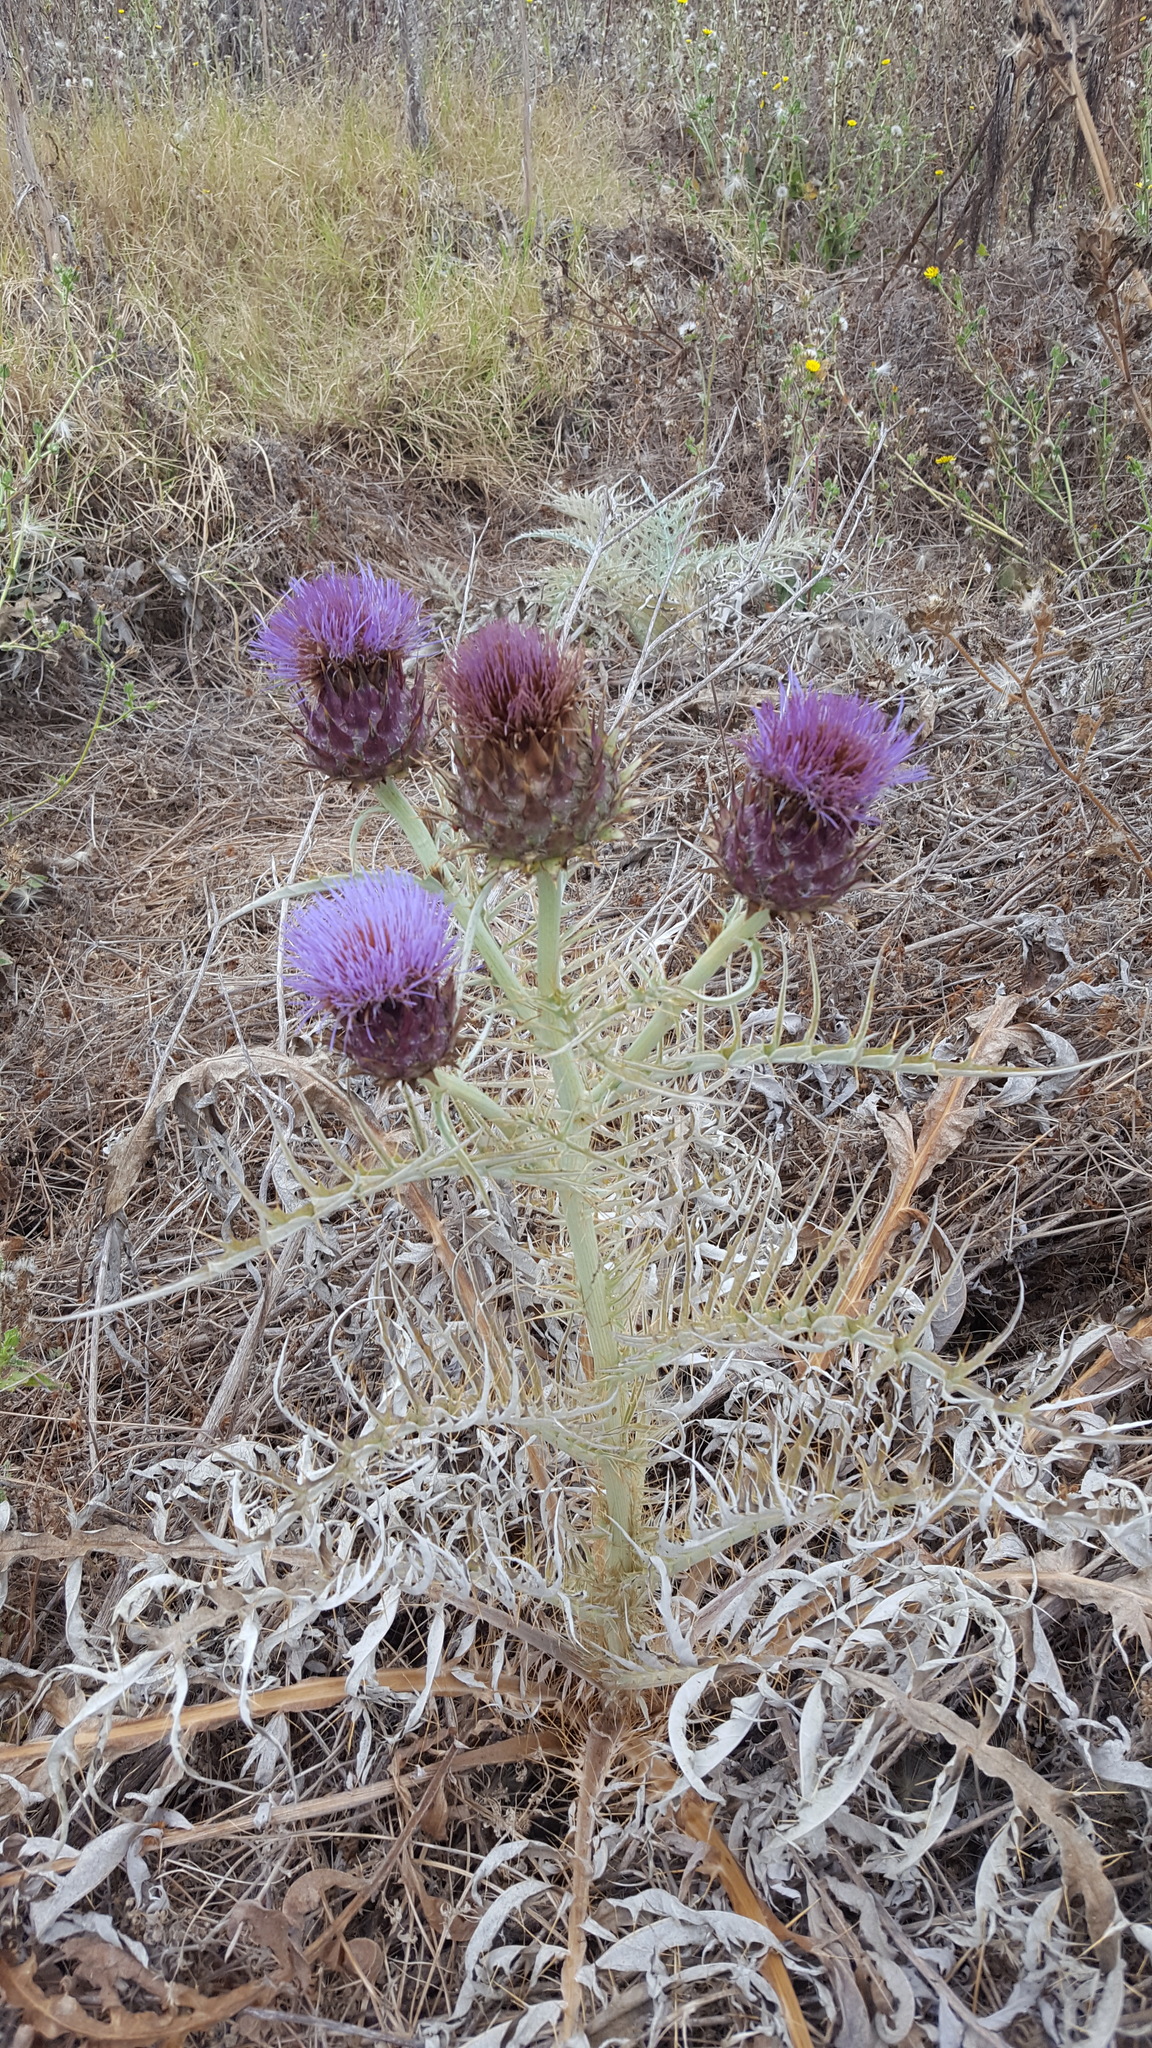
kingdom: Plantae
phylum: Tracheophyta
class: Magnoliopsida
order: Asterales
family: Asteraceae
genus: Cynara
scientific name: Cynara cardunculus
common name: Globe artichoke
